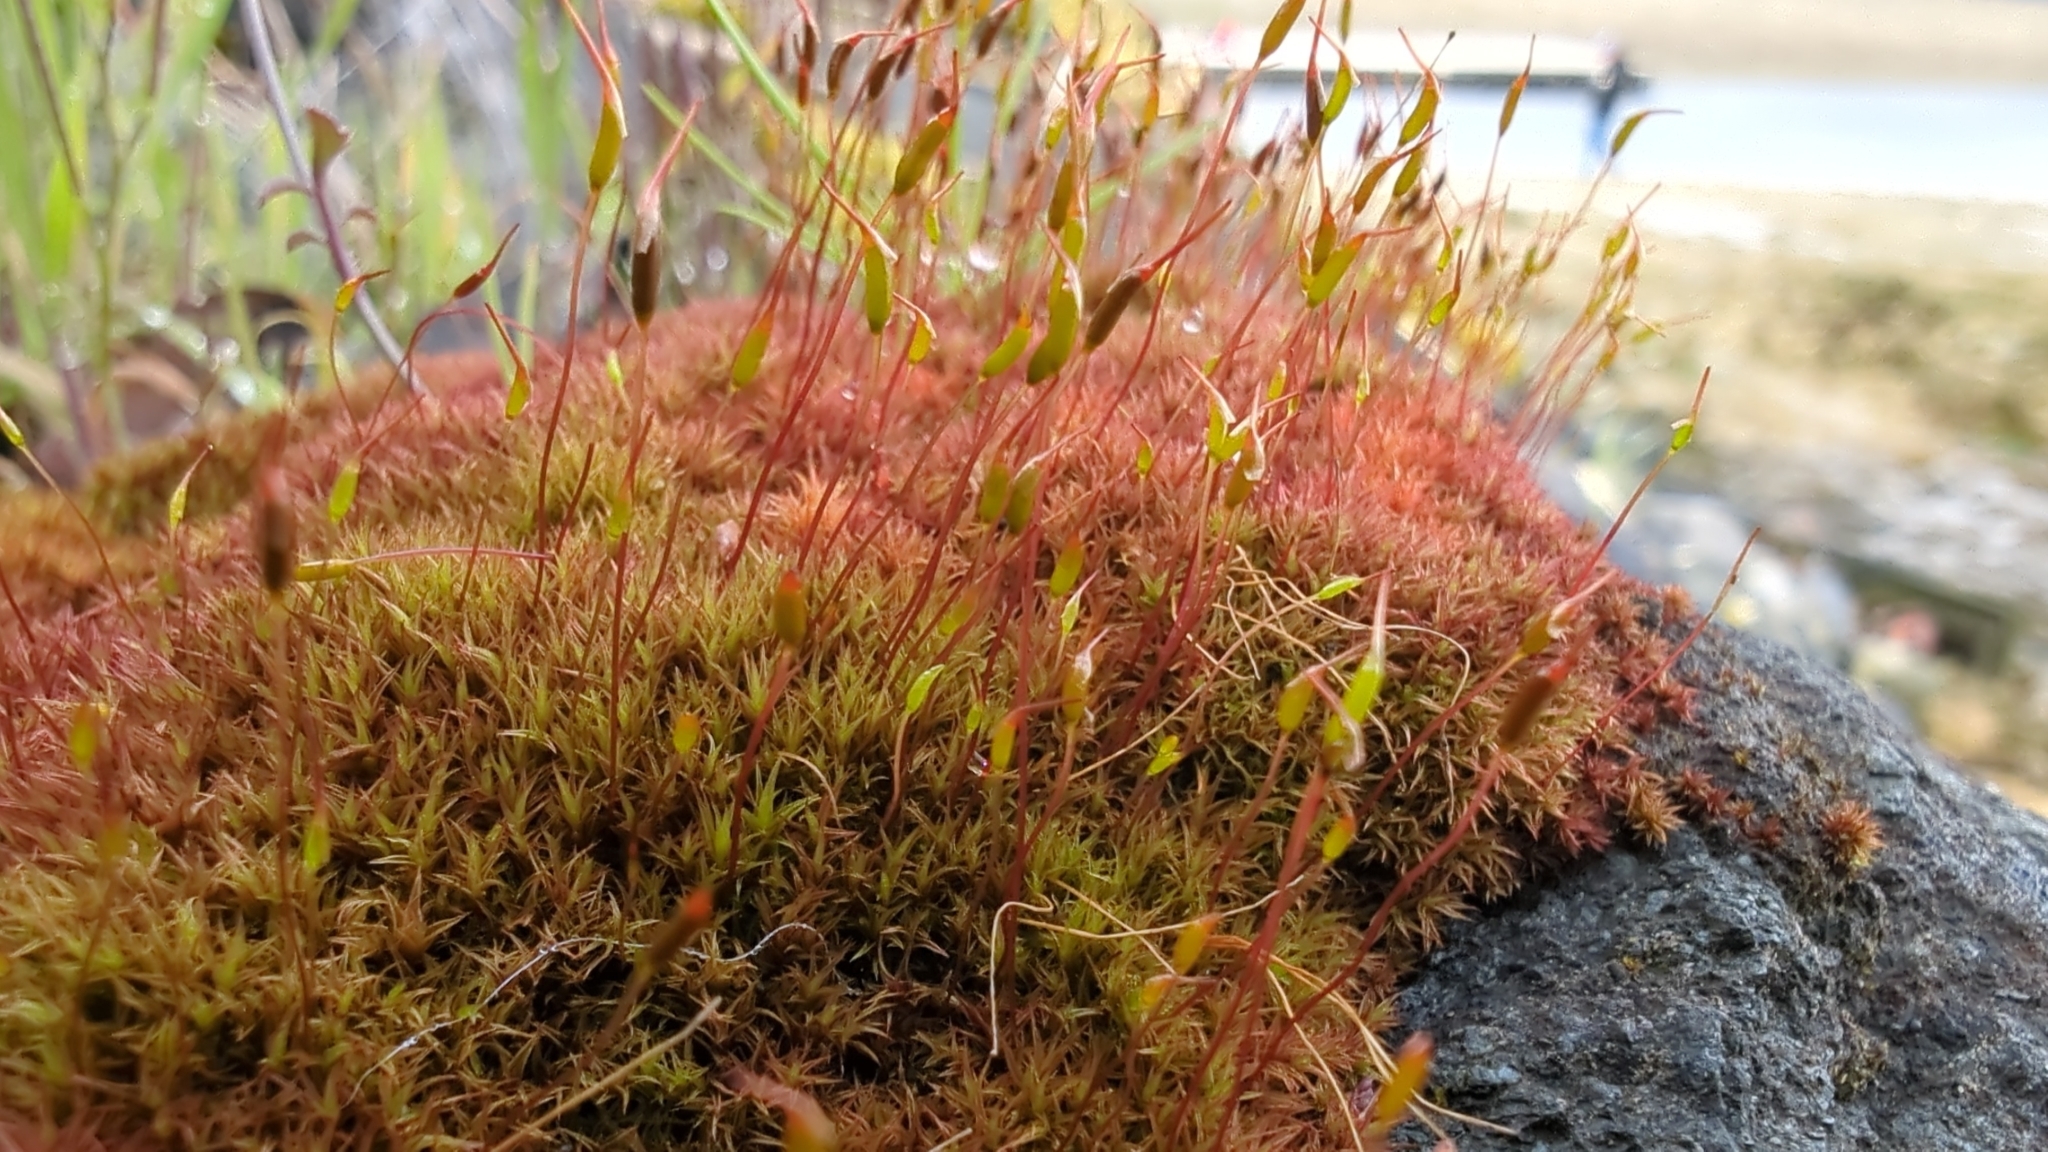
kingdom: Plantae
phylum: Bryophyta
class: Bryopsida
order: Dicranales
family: Ditrichaceae
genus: Ceratodon
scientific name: Ceratodon purpureus
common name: Redshank
